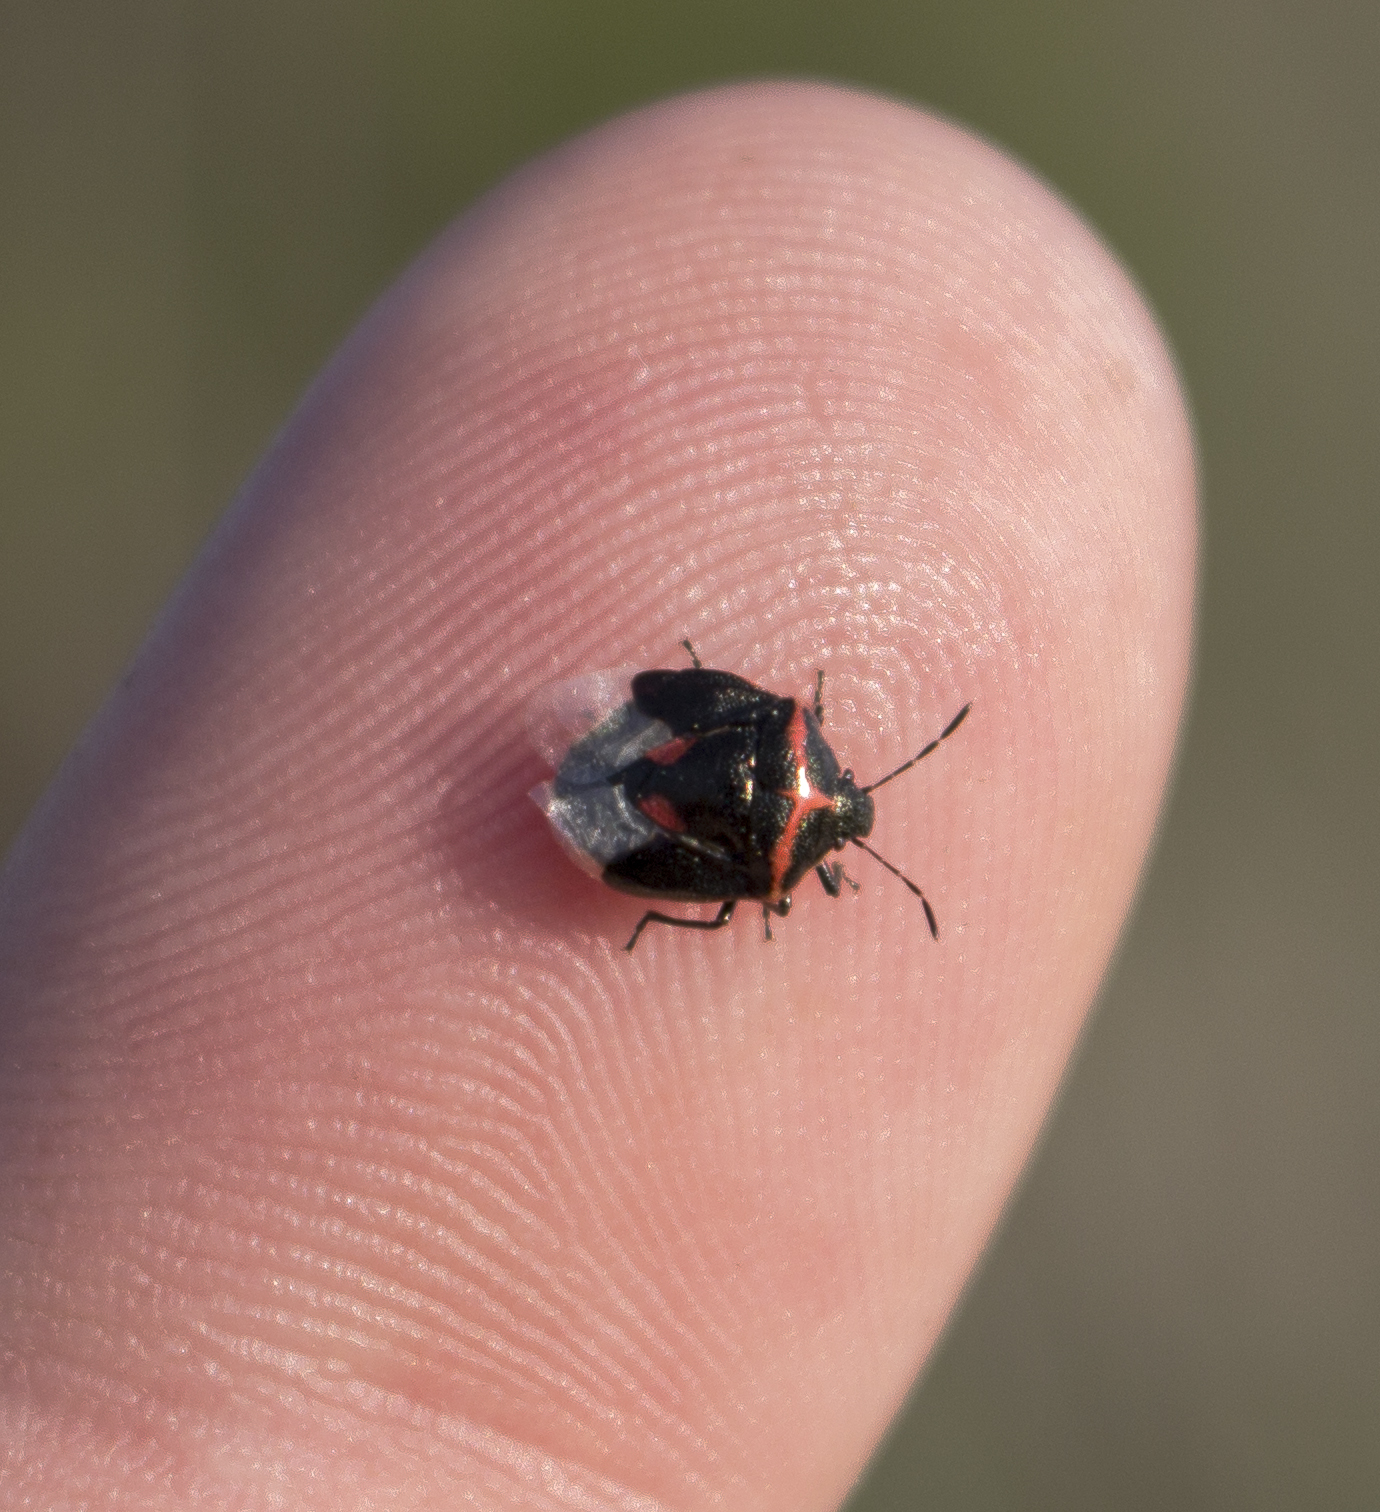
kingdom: Animalia
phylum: Arthropoda
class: Insecta
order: Hemiptera
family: Pentatomidae
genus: Cosmopepla
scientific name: Cosmopepla lintneriana
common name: Twice-stabbed stink bug
